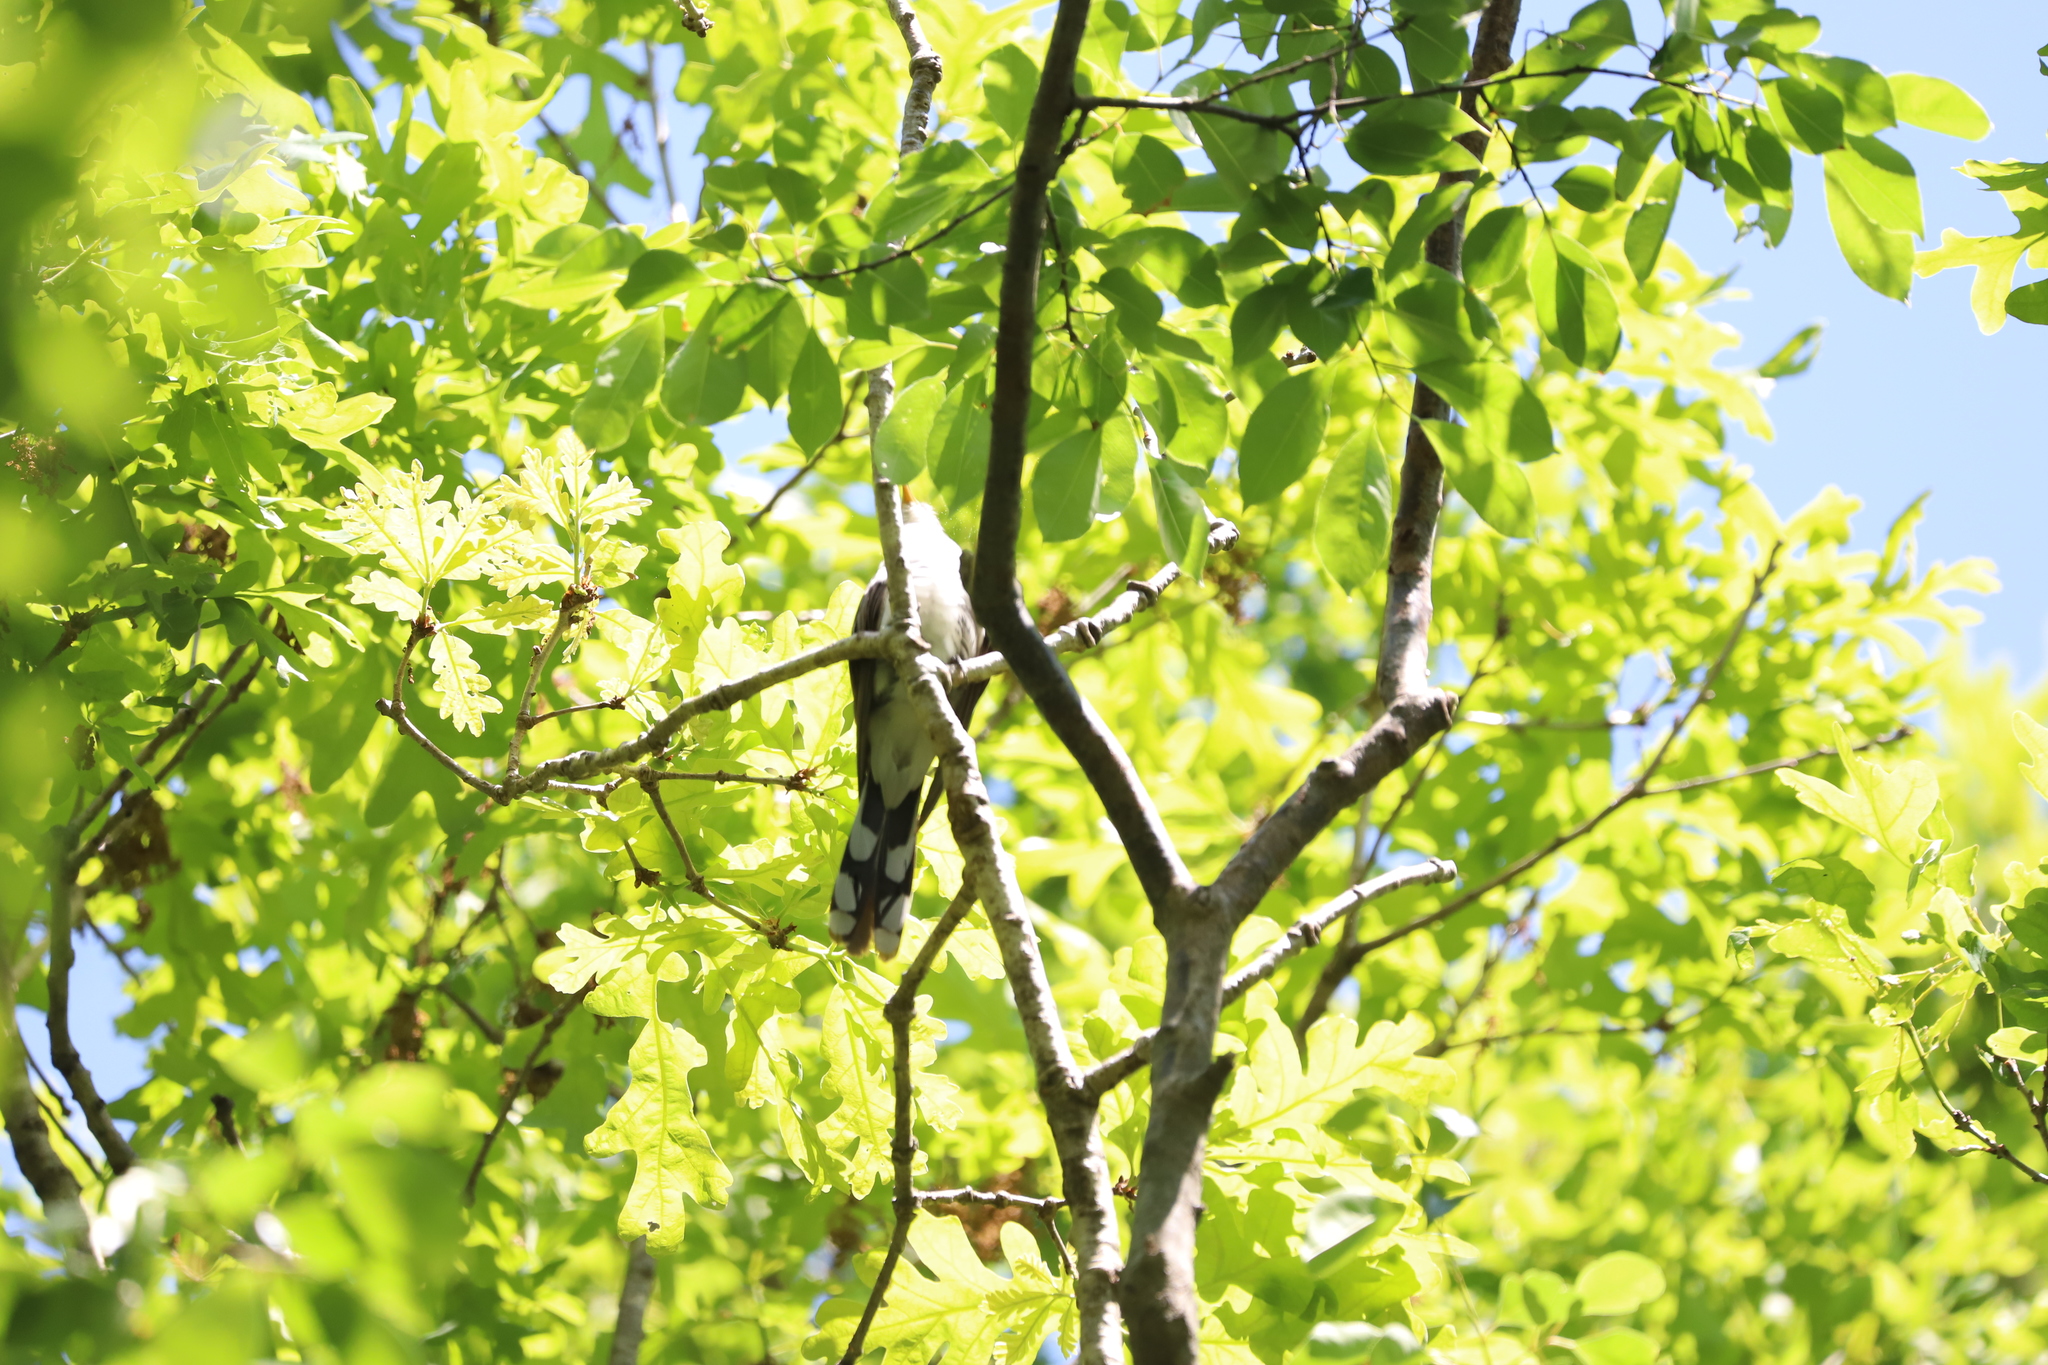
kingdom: Animalia
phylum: Chordata
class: Aves
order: Cuculiformes
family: Cuculidae
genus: Coccyzus
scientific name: Coccyzus americanus
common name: Yellow-billed cuckoo
